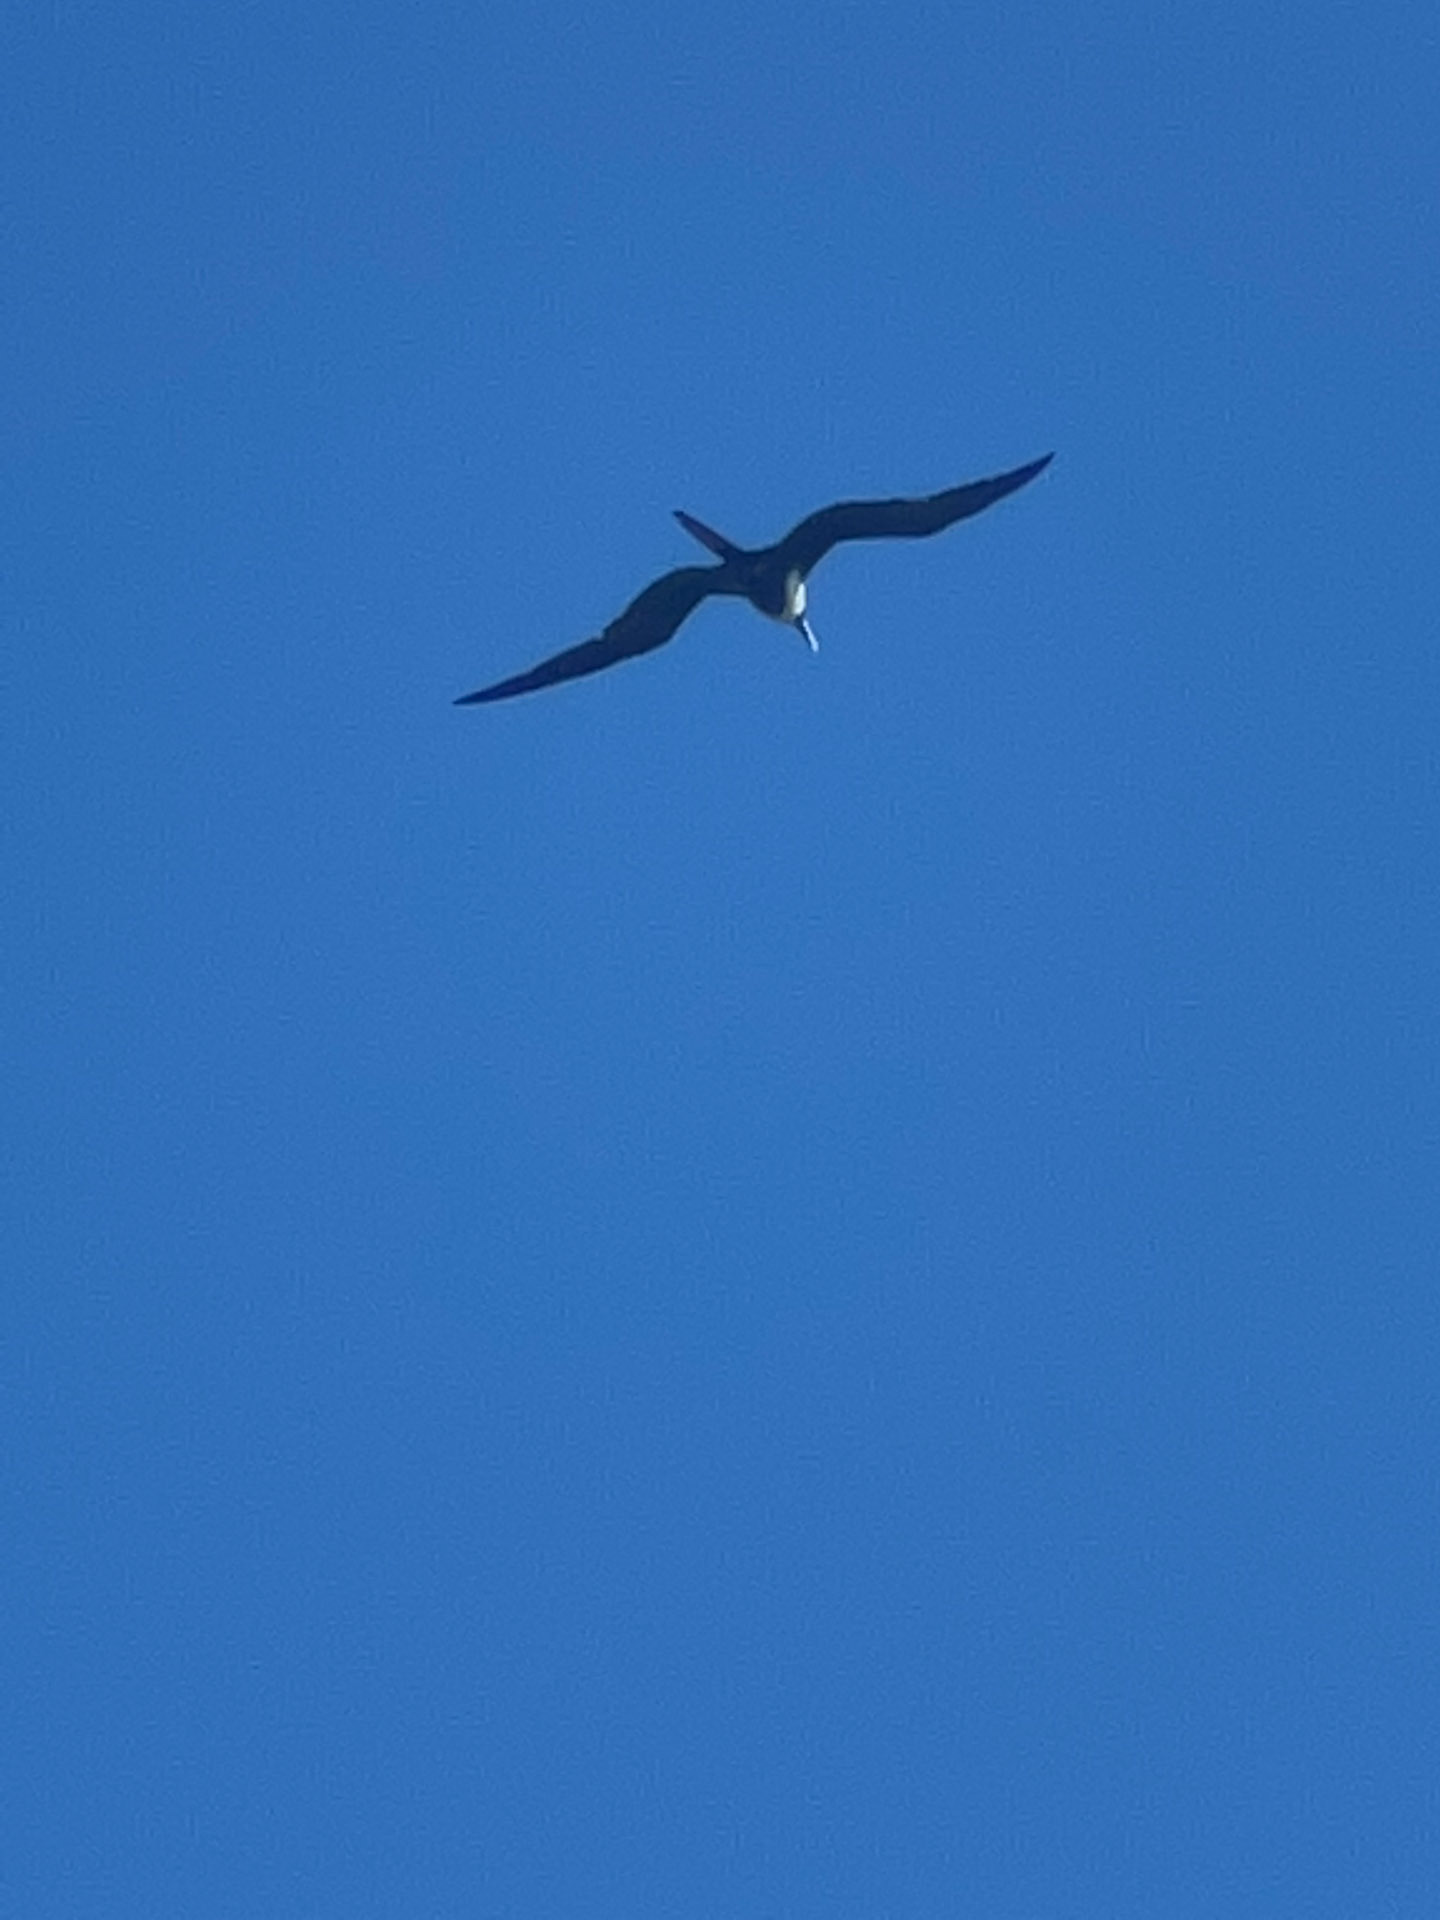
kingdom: Animalia
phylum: Chordata
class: Aves
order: Suliformes
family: Fregatidae
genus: Fregata
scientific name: Fregata magnificens
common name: Magnificent frigatebird
